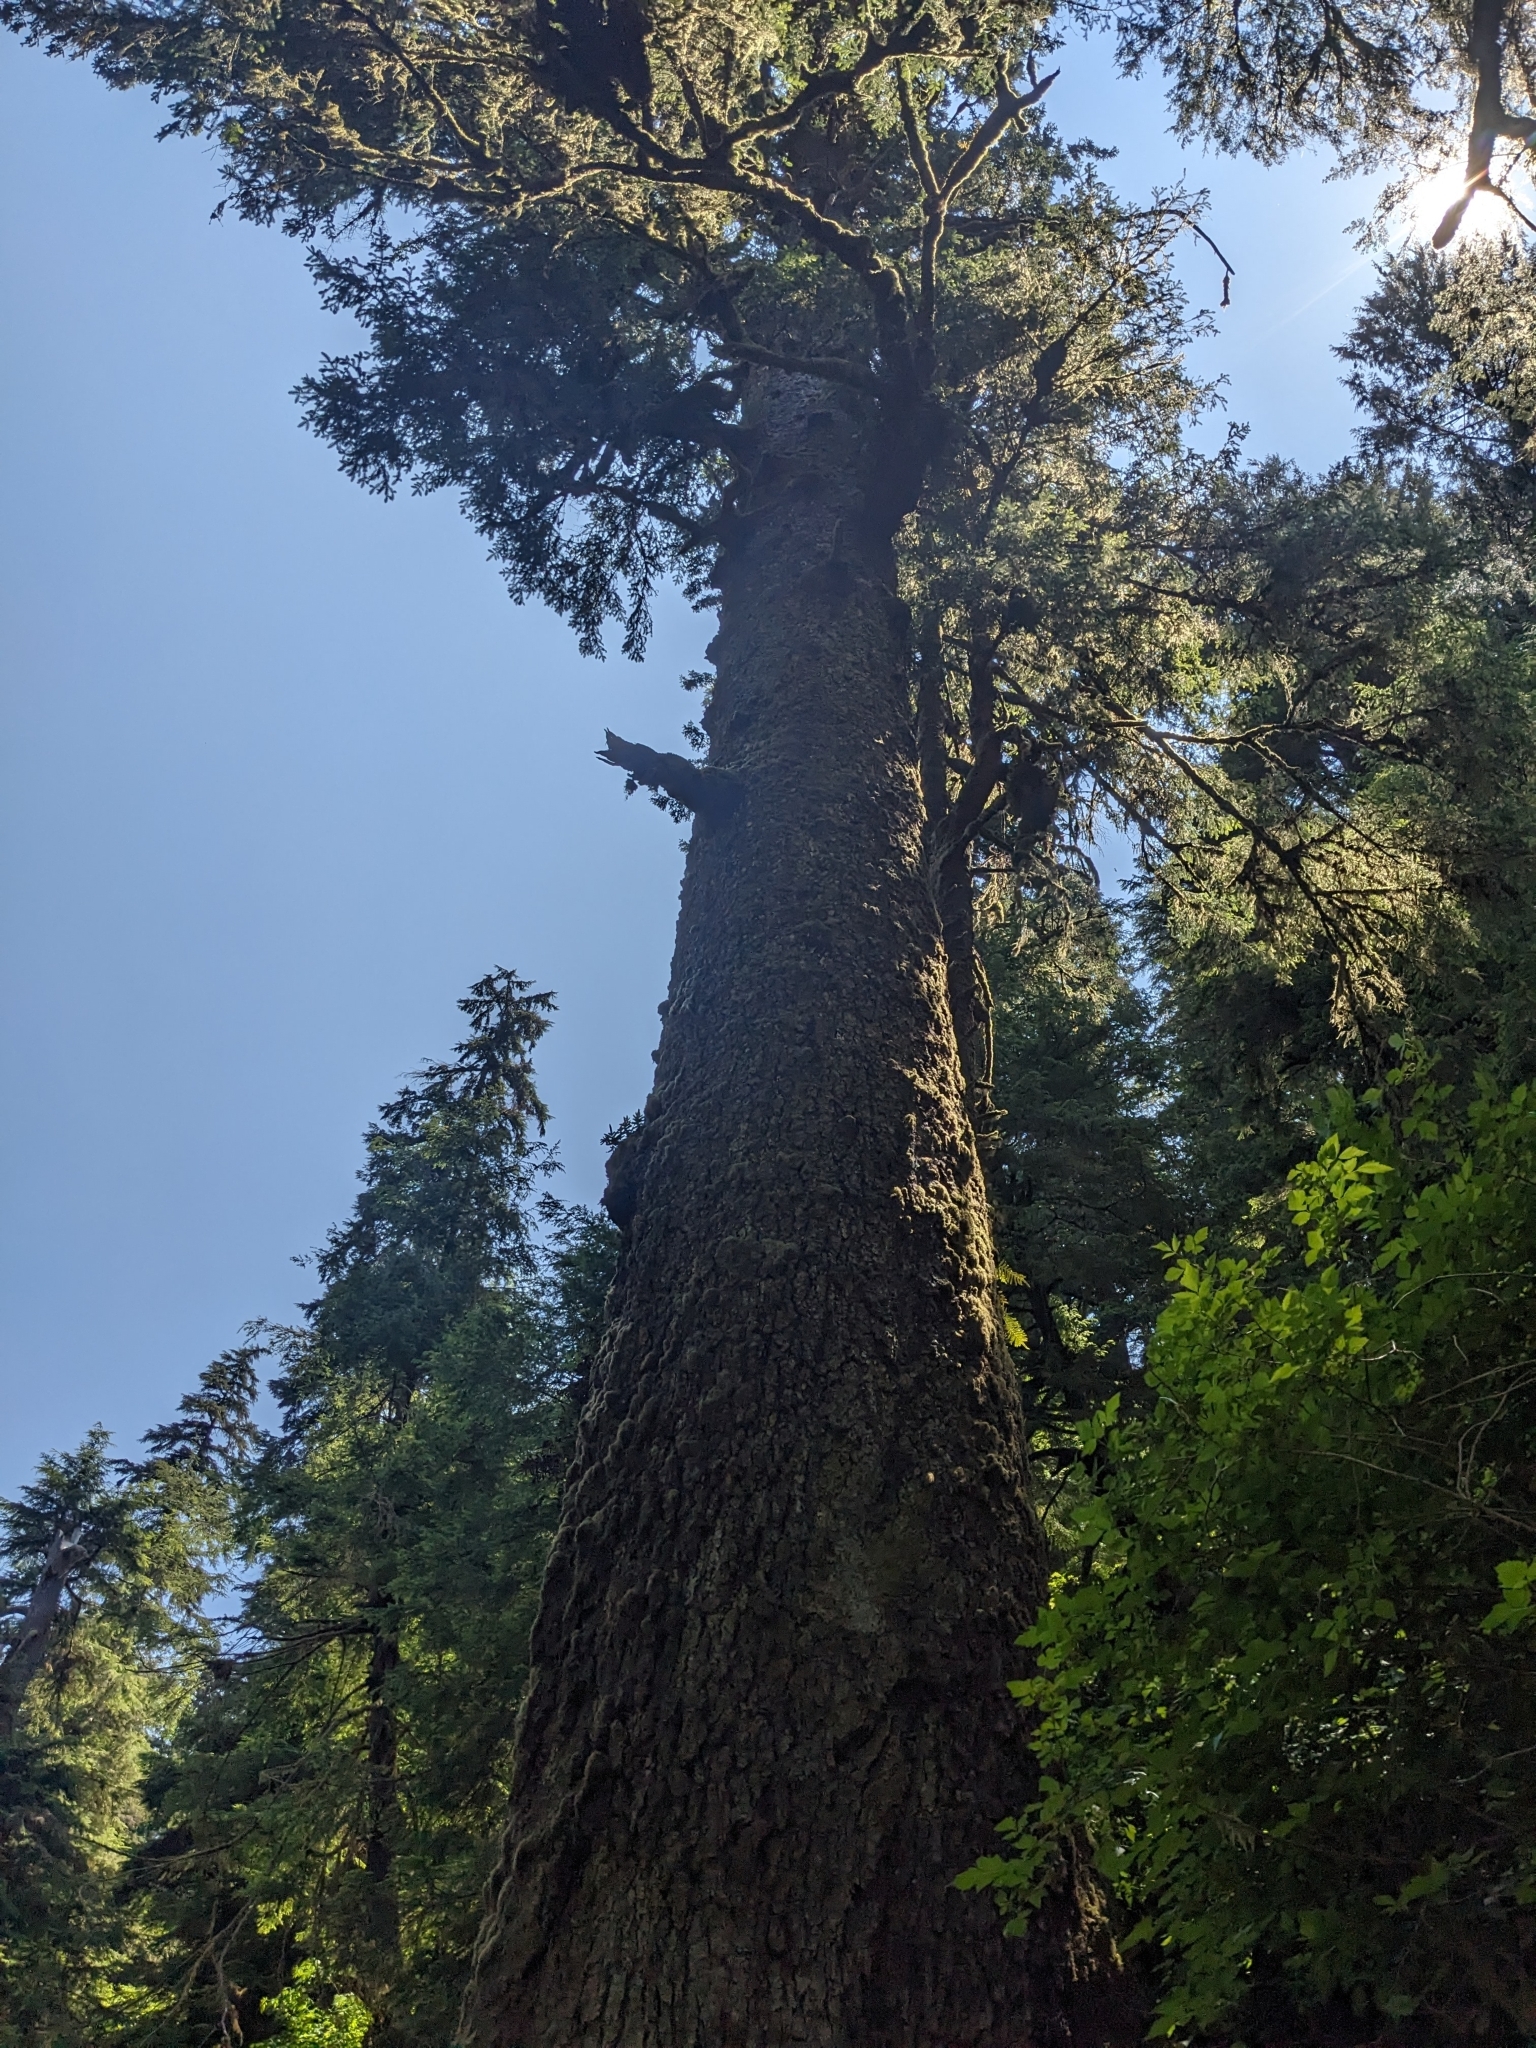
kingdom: Plantae
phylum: Tracheophyta
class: Pinopsida
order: Pinales
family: Pinaceae
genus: Picea
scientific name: Picea sitchensis
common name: Sitka spruce
